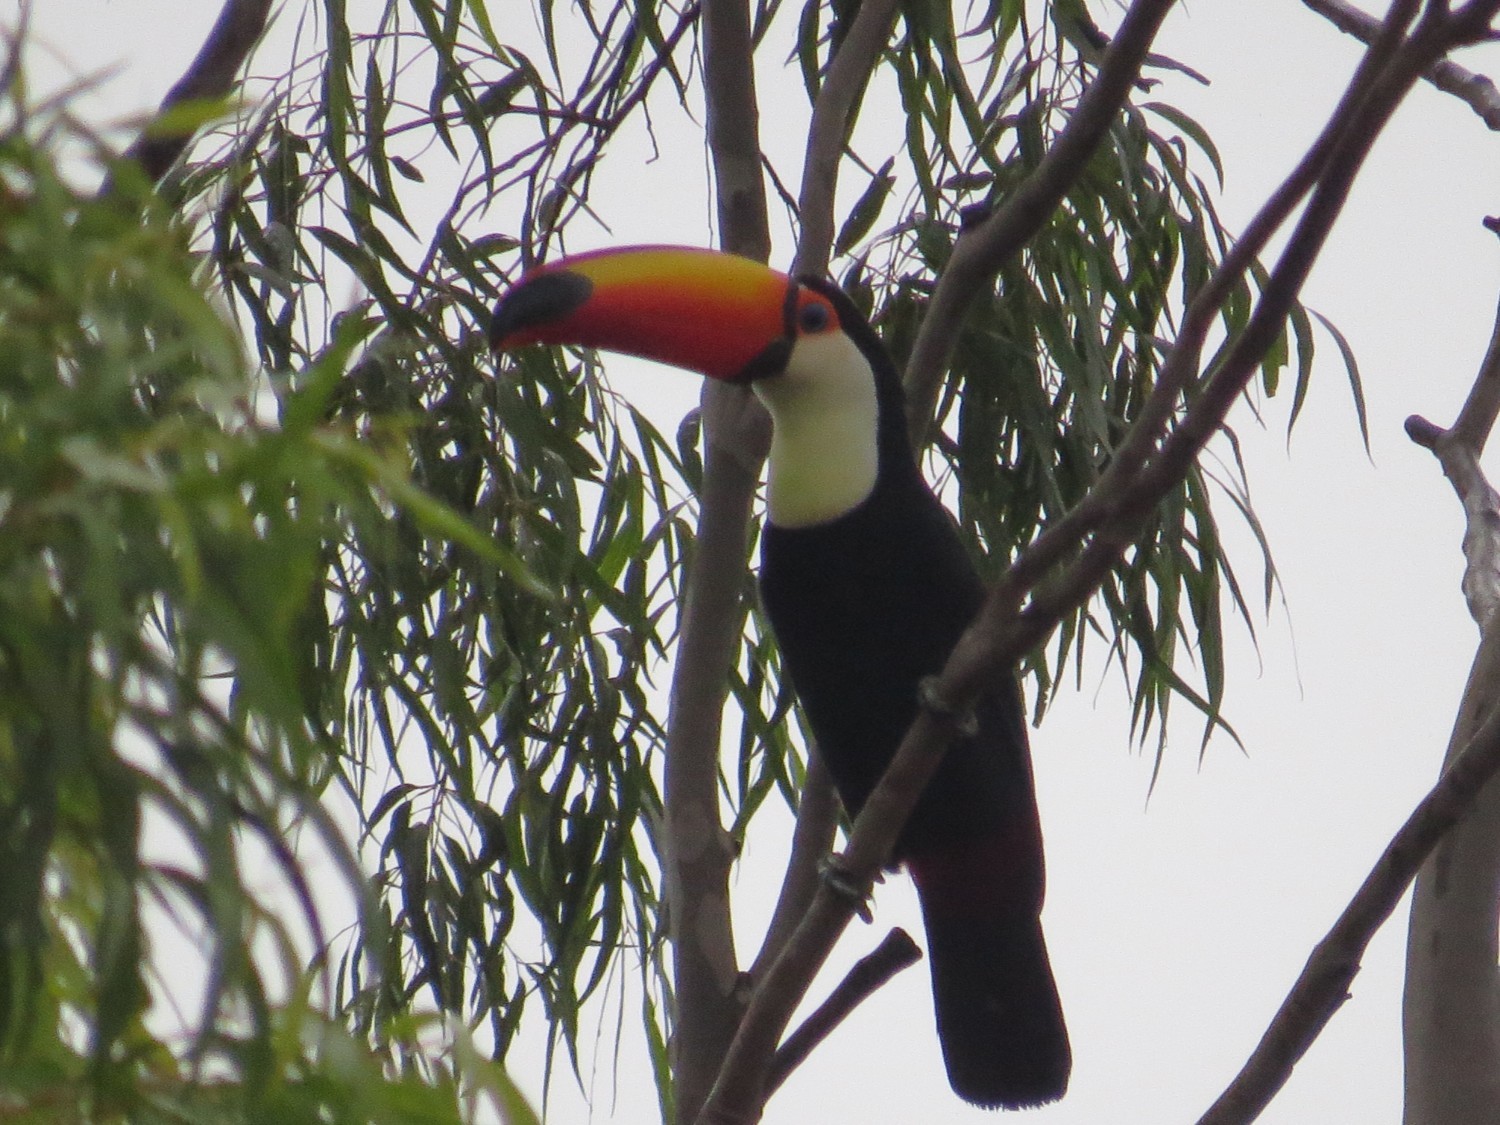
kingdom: Animalia
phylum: Chordata
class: Aves
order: Piciformes
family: Ramphastidae
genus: Ramphastos
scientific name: Ramphastos toco
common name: Toco toucan
